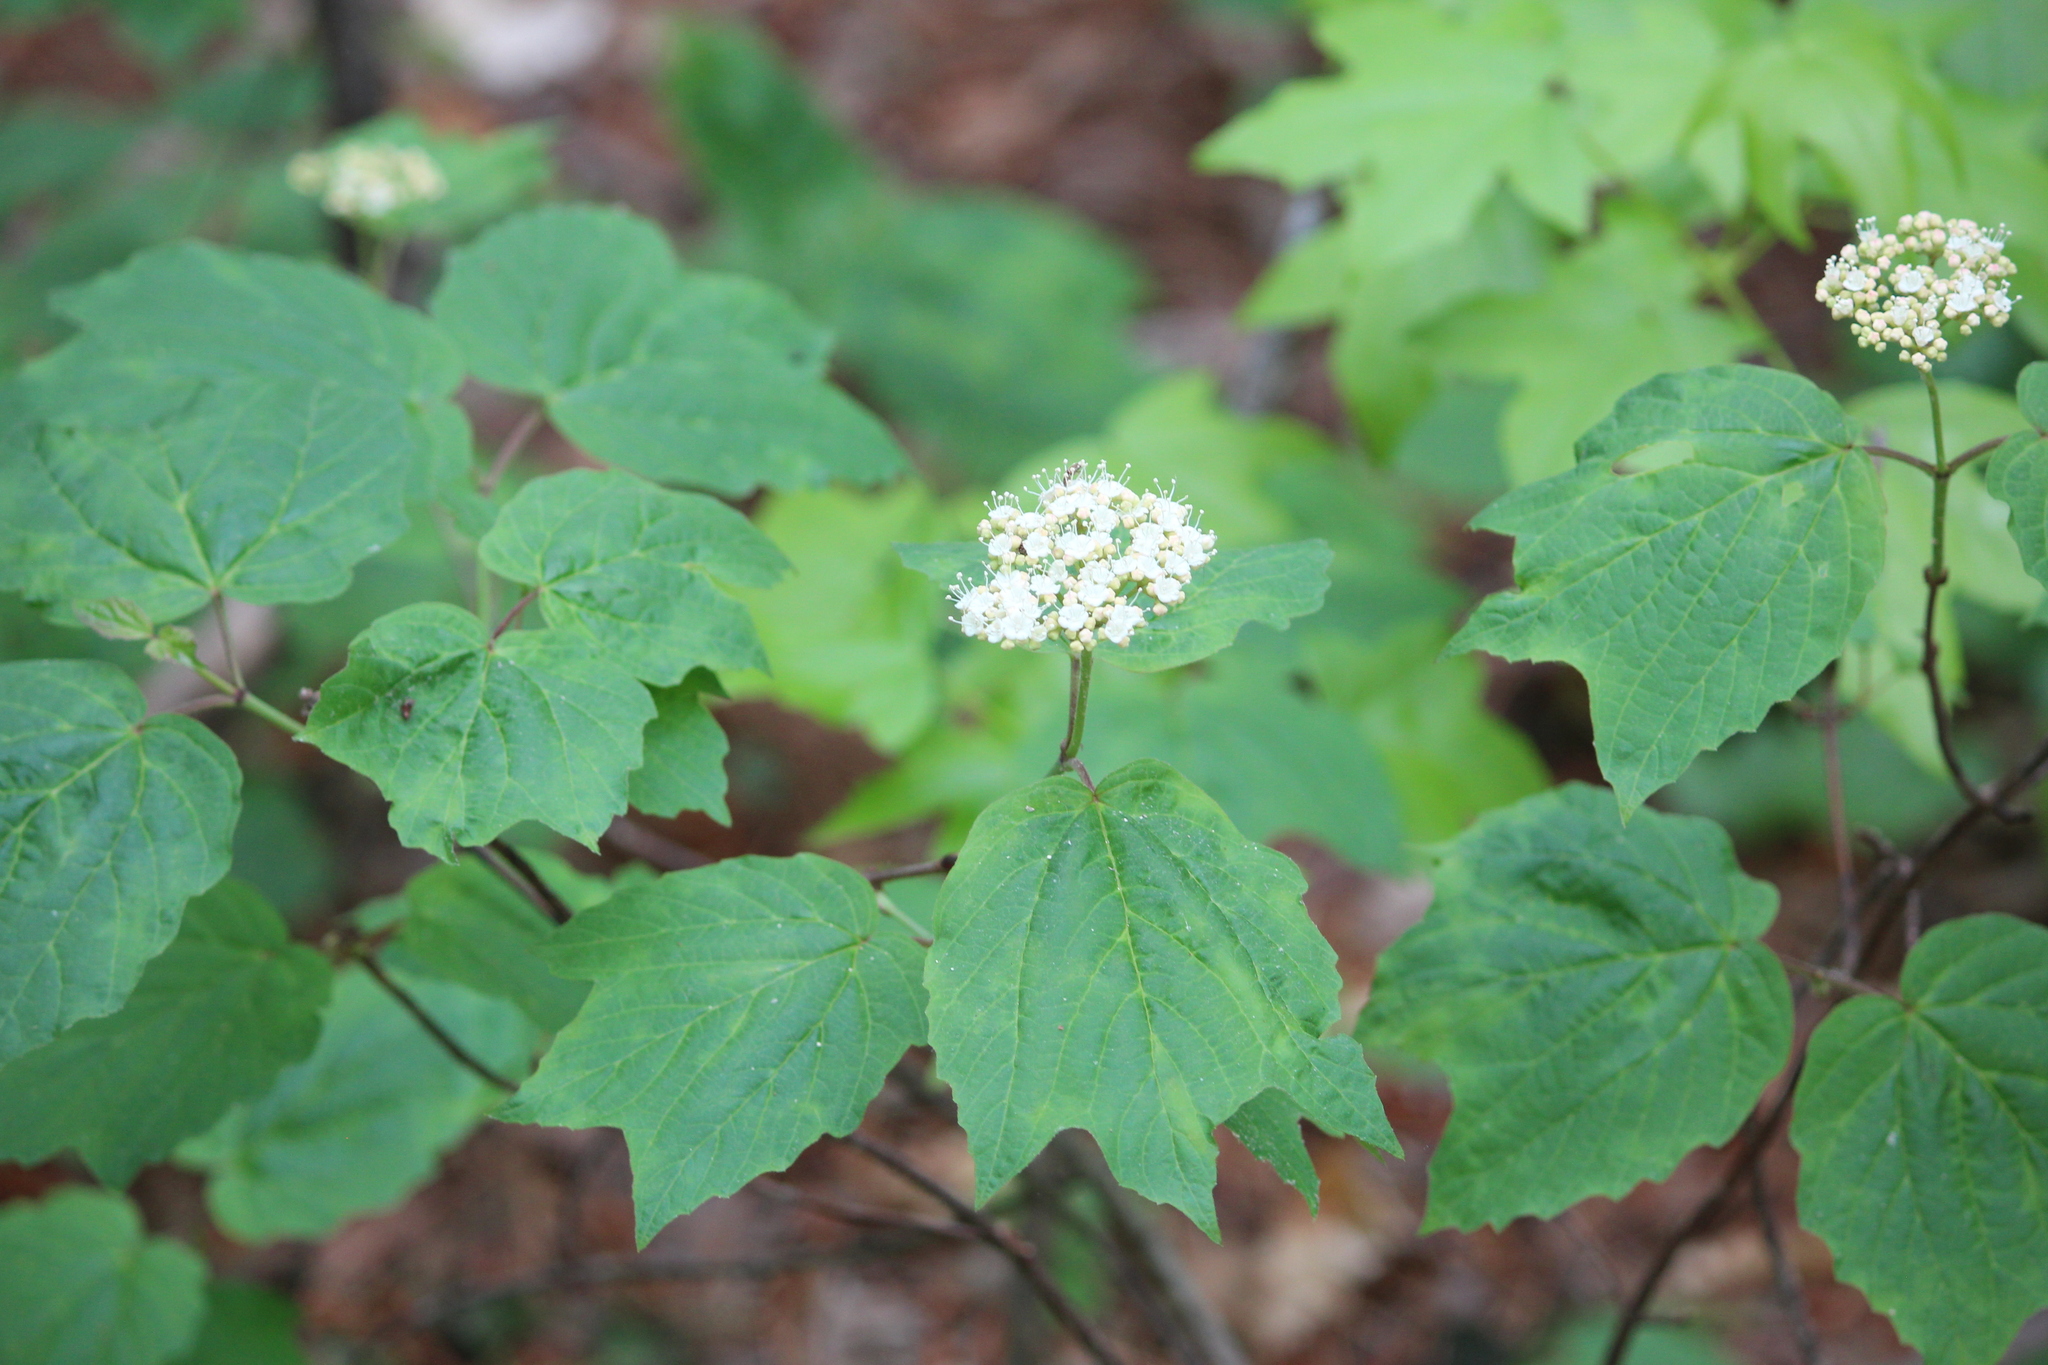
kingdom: Plantae
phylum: Tracheophyta
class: Magnoliopsida
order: Dipsacales
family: Viburnaceae
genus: Viburnum
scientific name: Viburnum acerifolium
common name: Dockmackie
